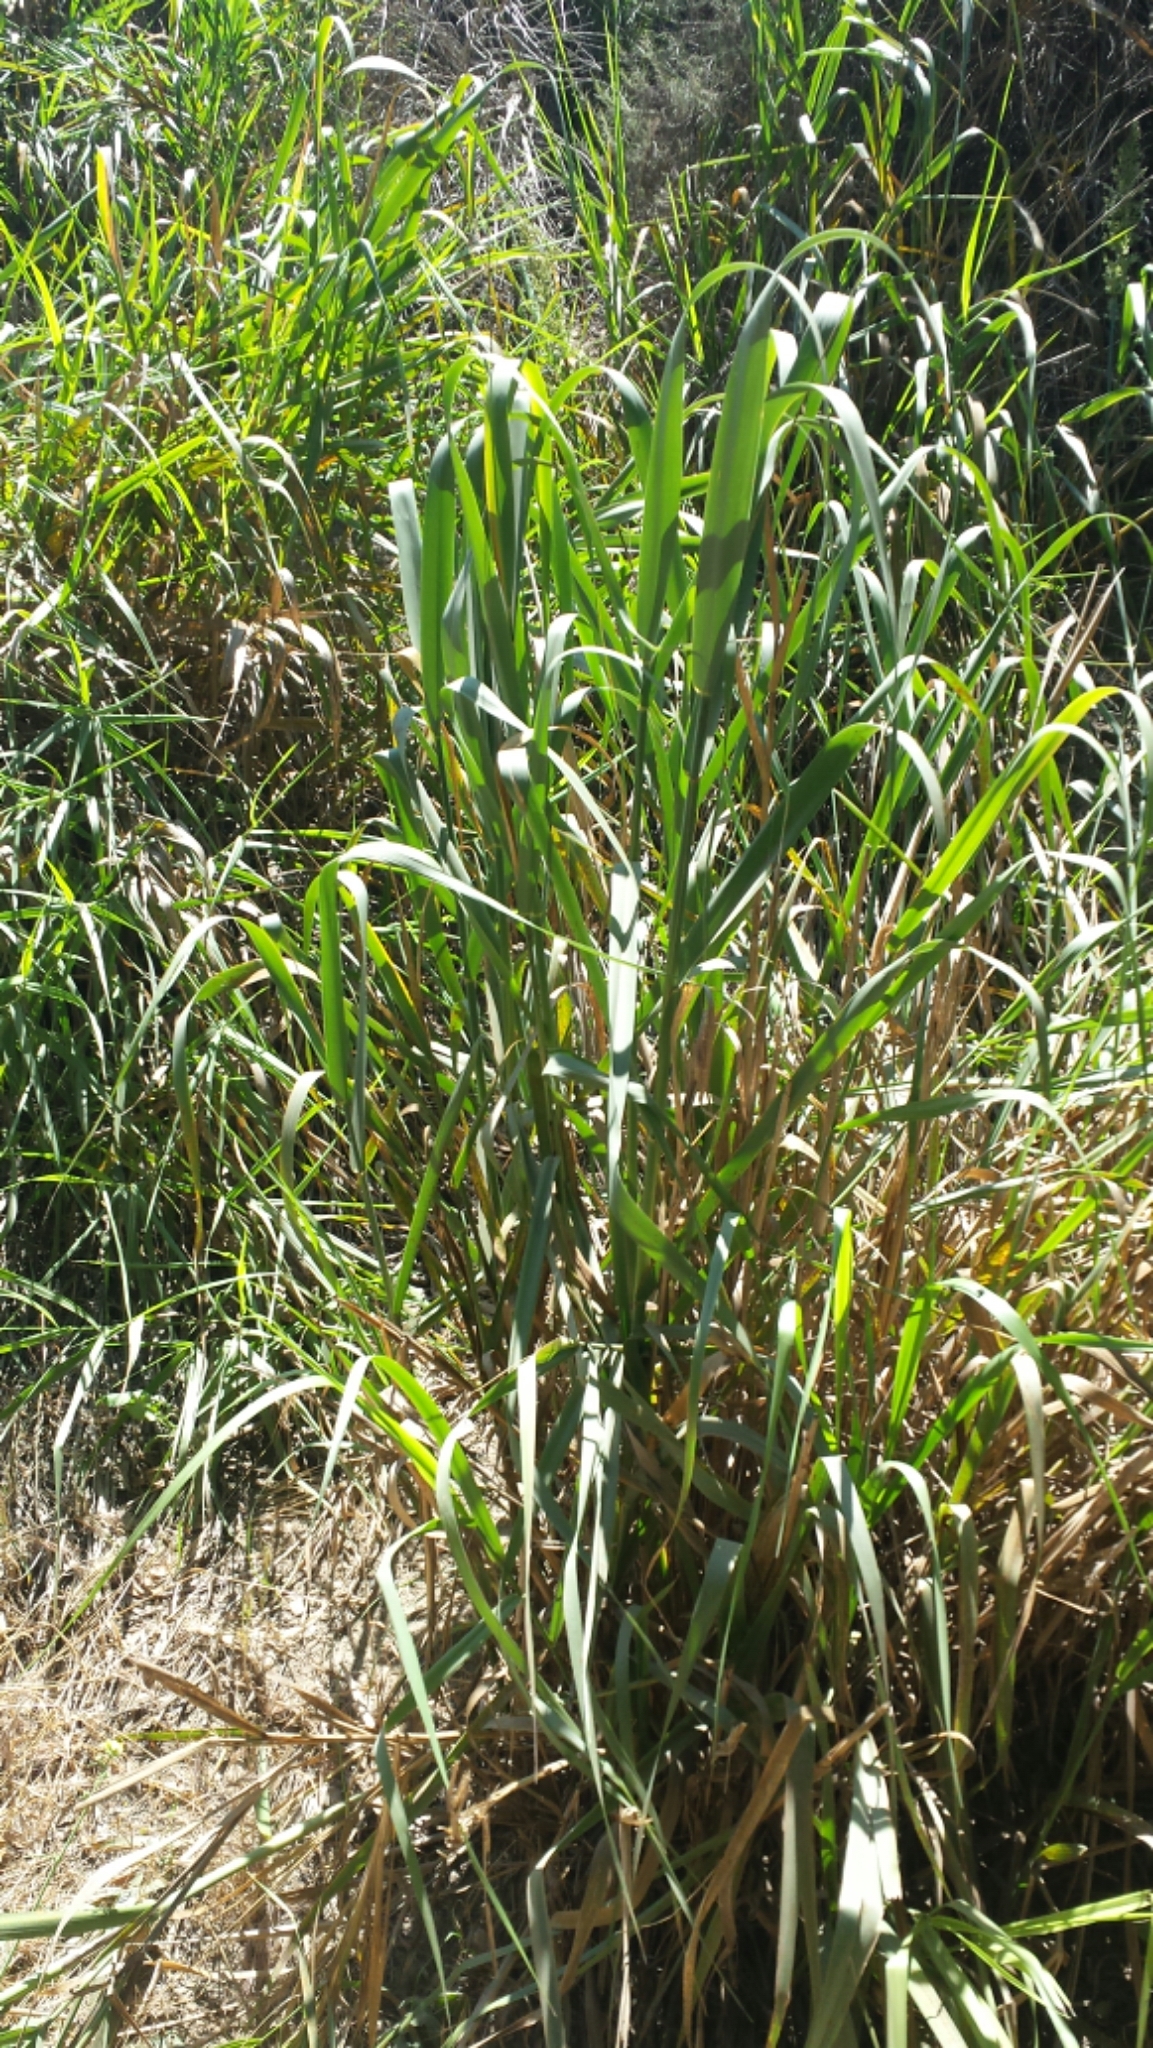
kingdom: Plantae
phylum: Tracheophyta
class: Liliopsida
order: Poales
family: Poaceae
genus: Leymus
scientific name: Leymus condensatus
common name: Giant wild rye
